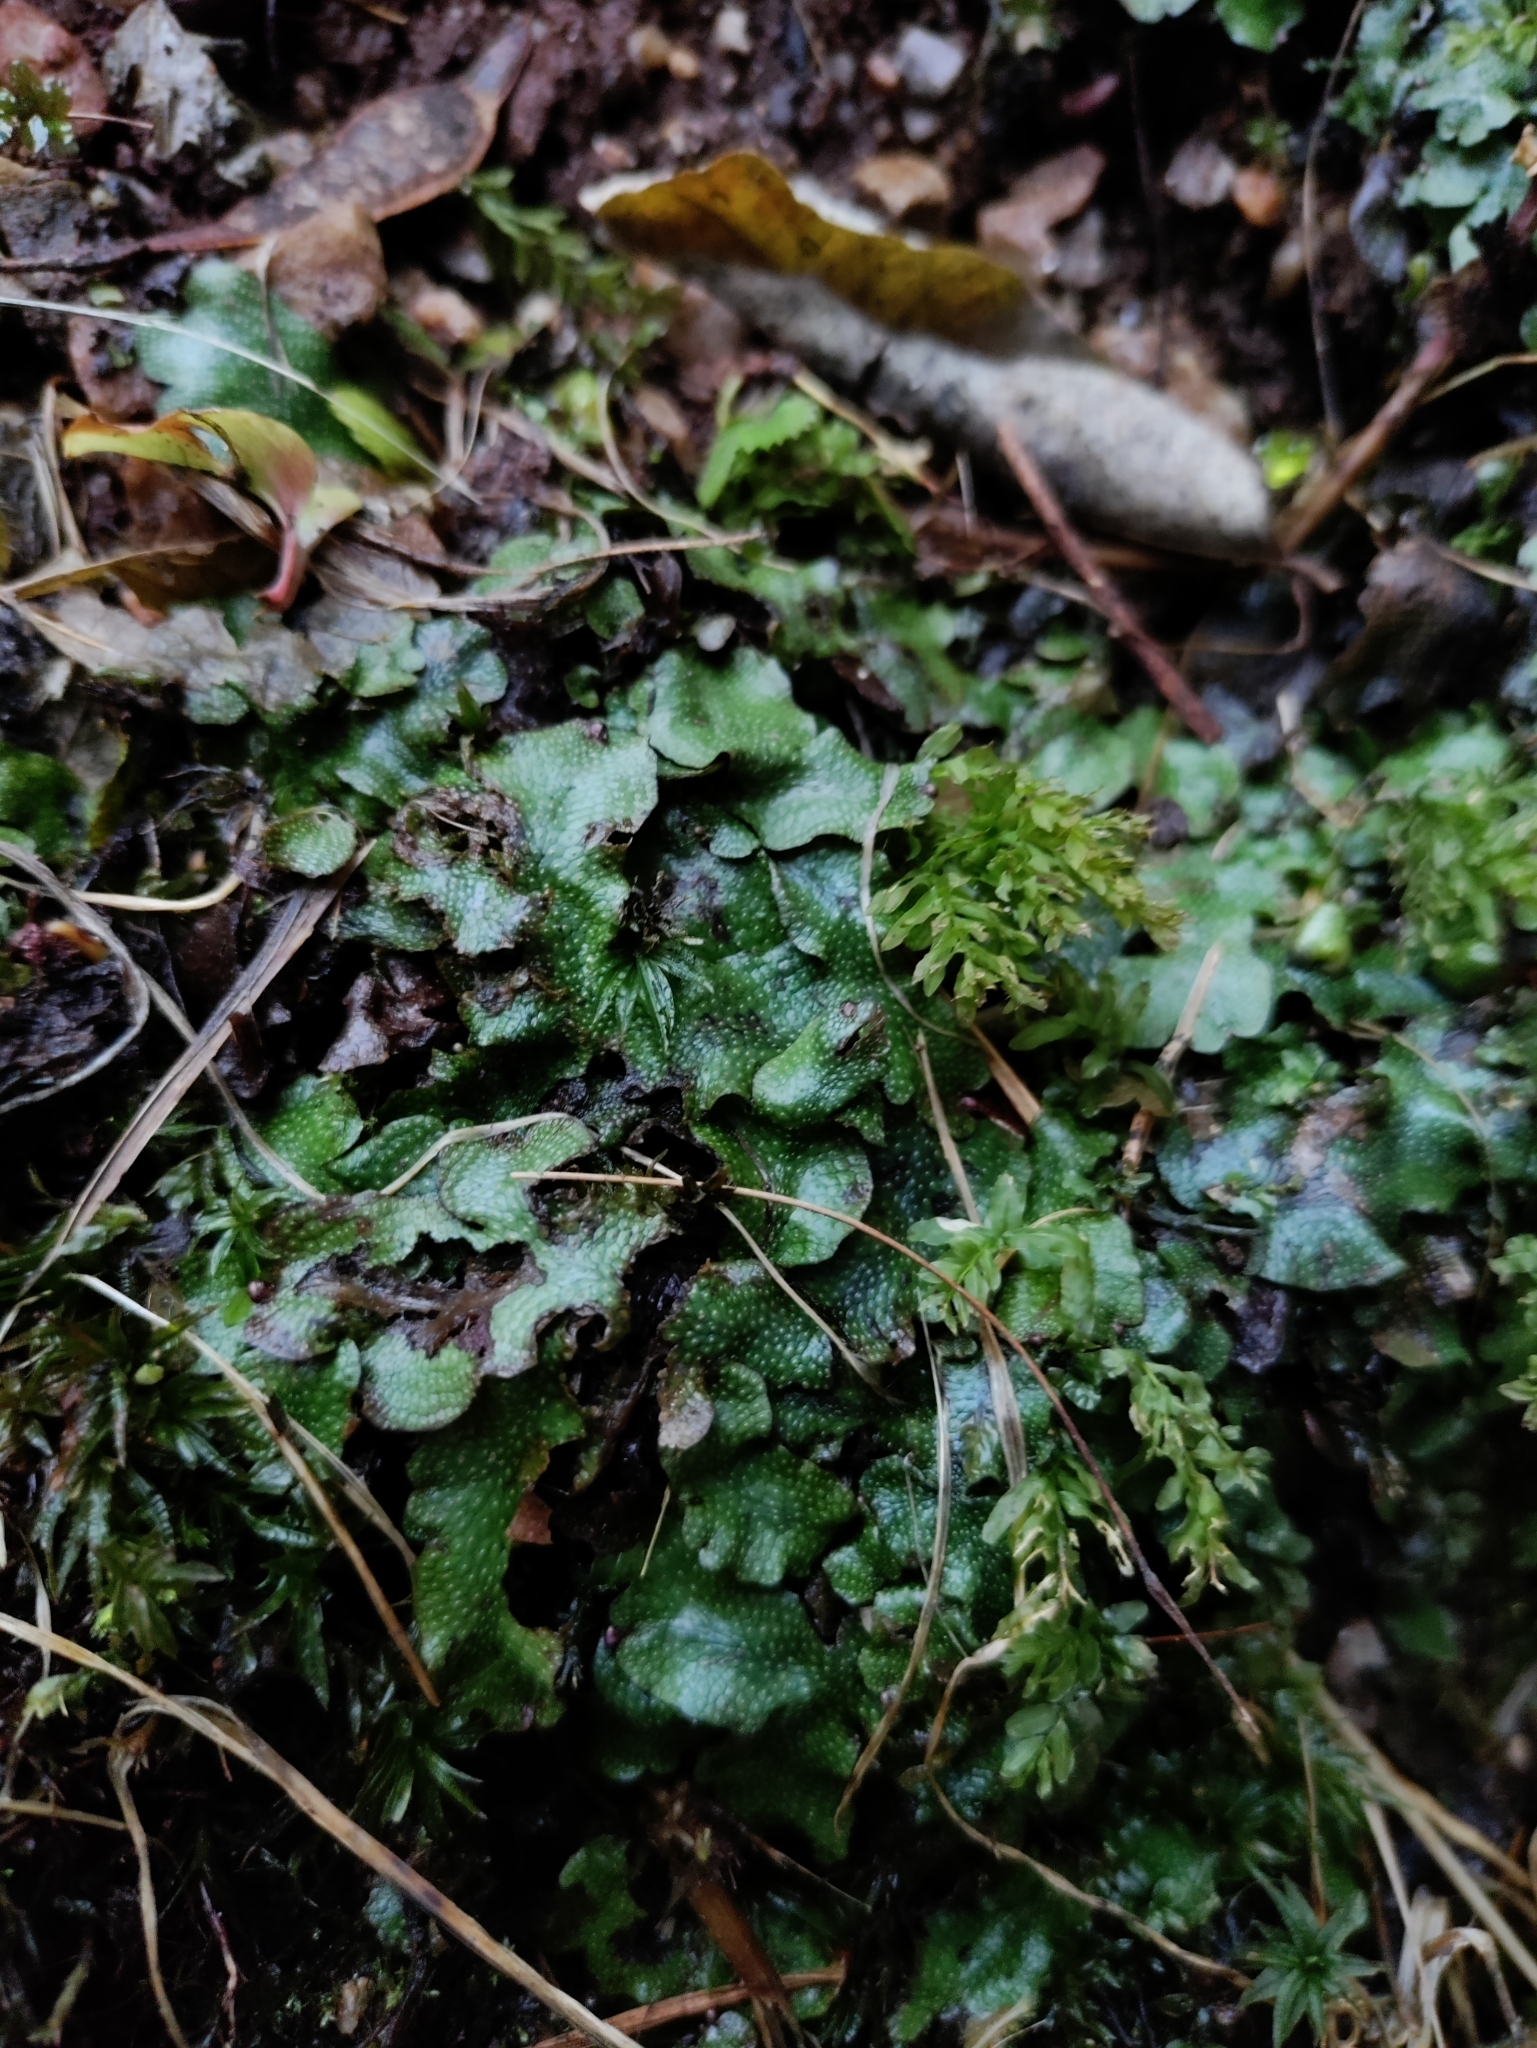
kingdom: Plantae
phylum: Bryophyta
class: Bryopsida
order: Bryales
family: Mniaceae
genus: Plagiomnium
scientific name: Plagiomnium undulatum
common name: Hart's-tongue thyme-moss
